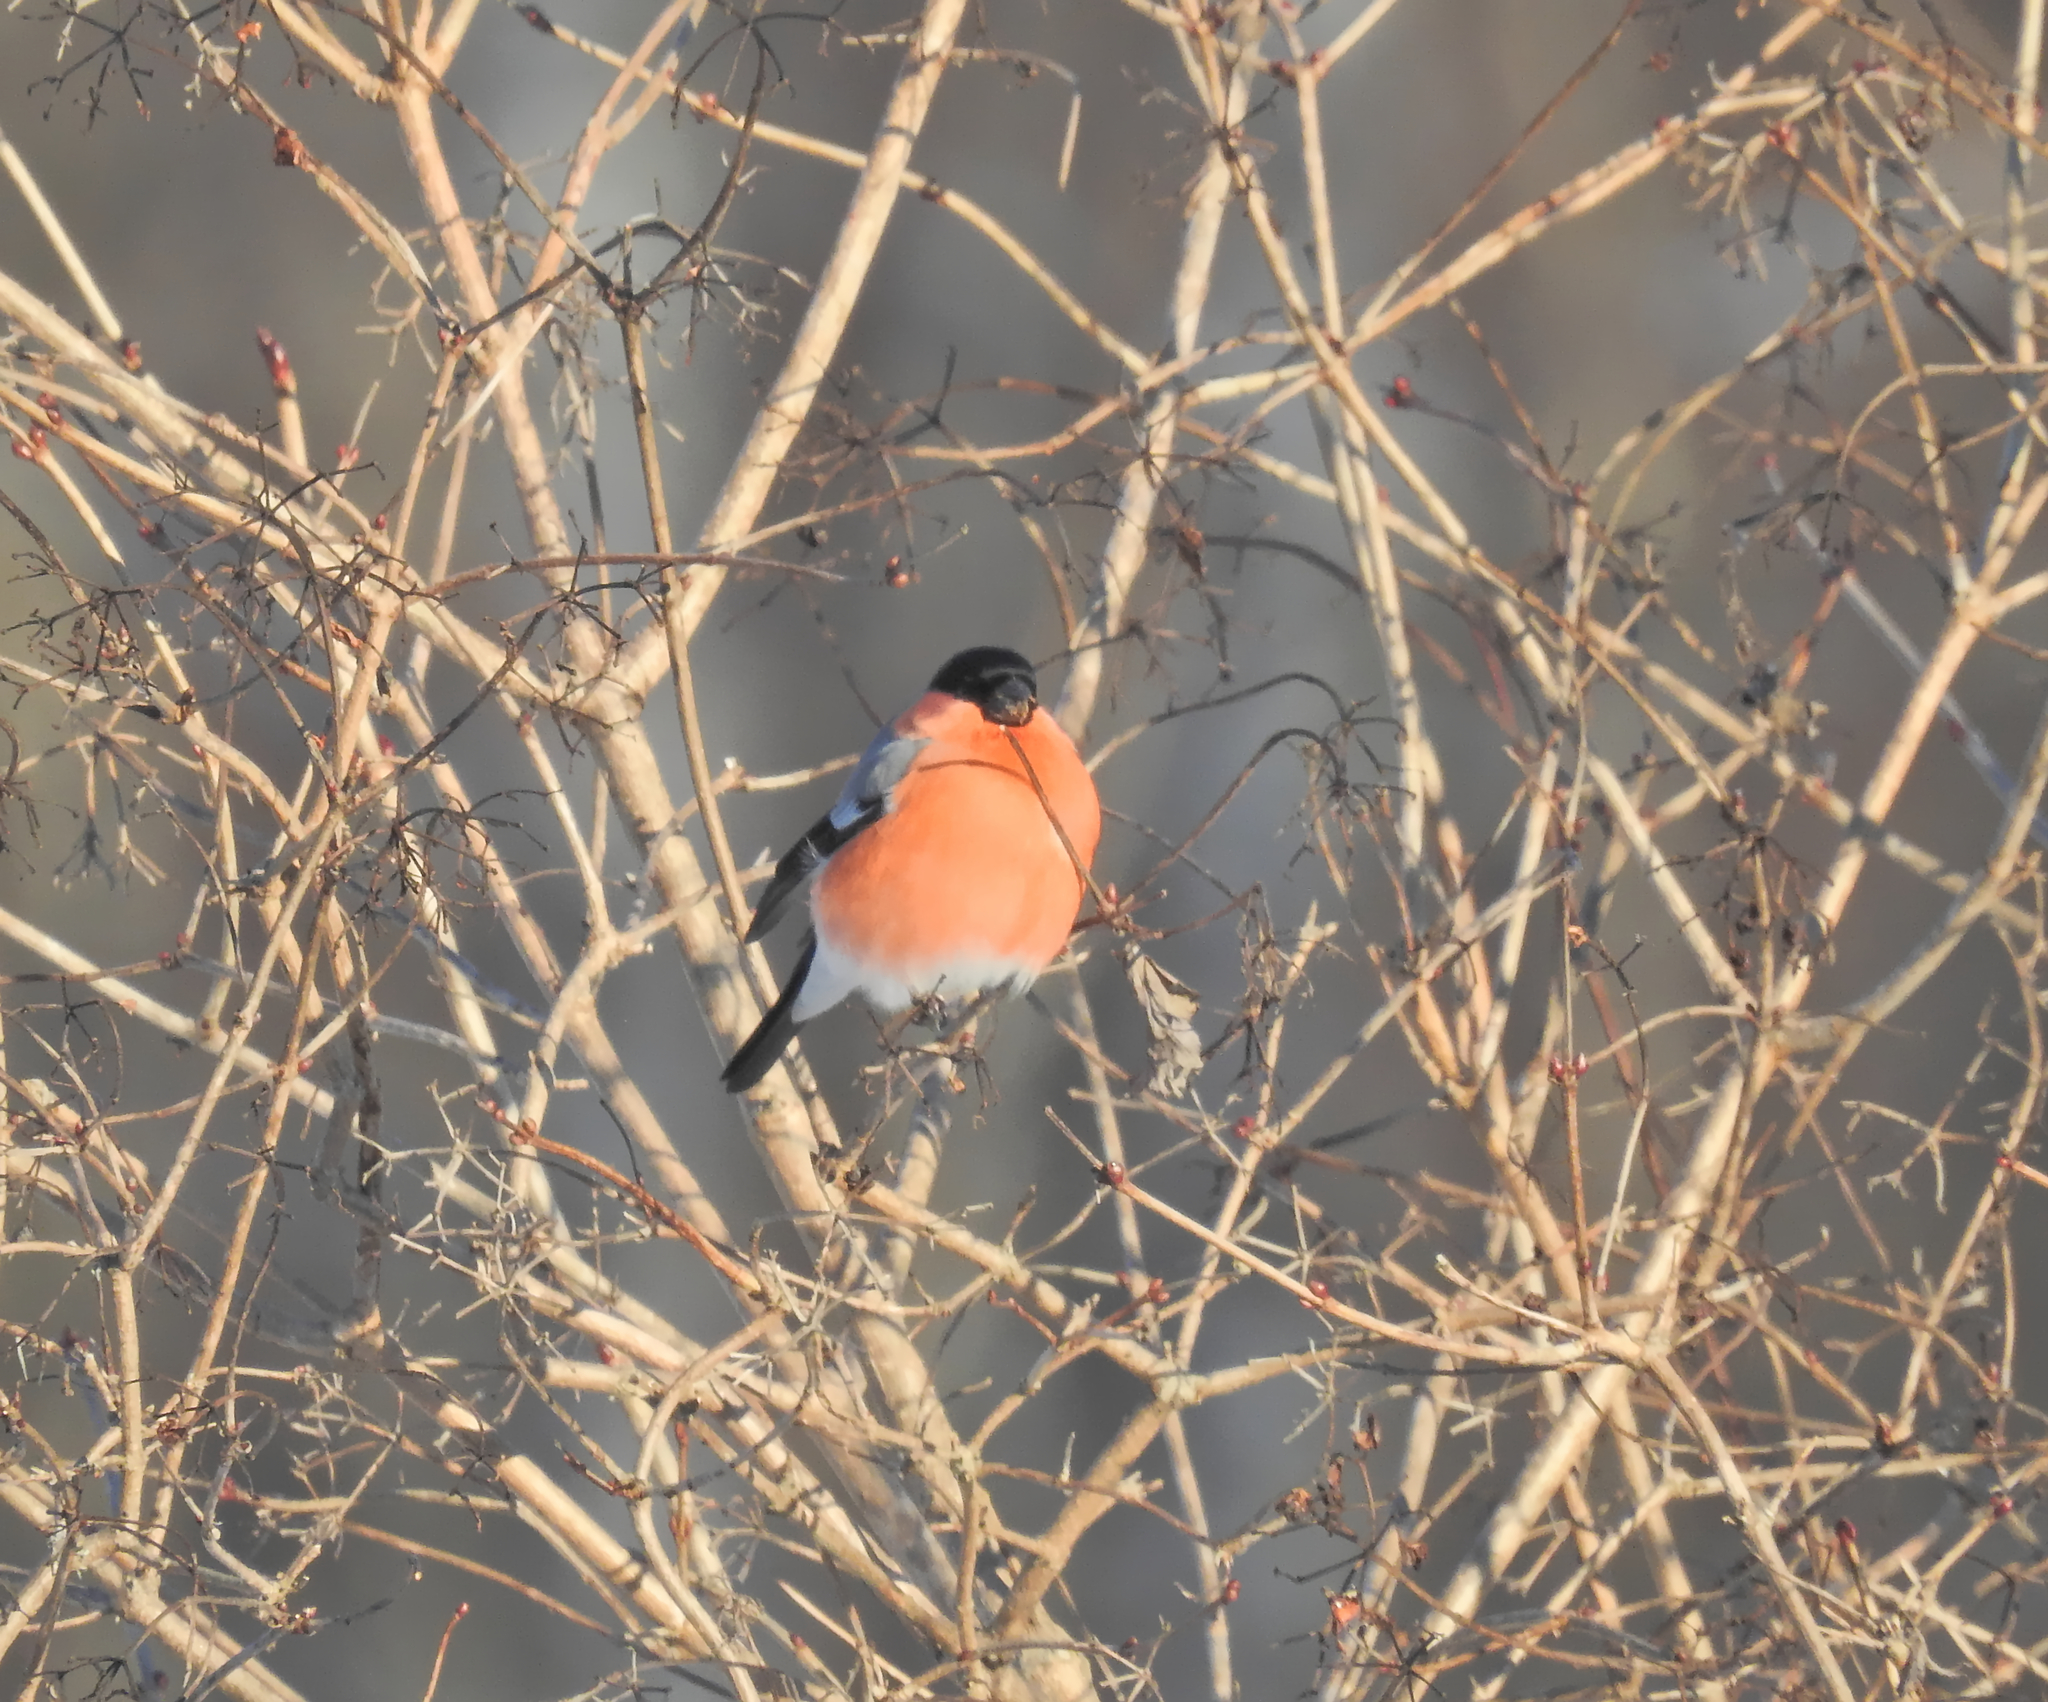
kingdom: Animalia
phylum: Chordata
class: Aves
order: Passeriformes
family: Fringillidae
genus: Pyrrhula
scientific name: Pyrrhula pyrrhula
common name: Eurasian bullfinch
